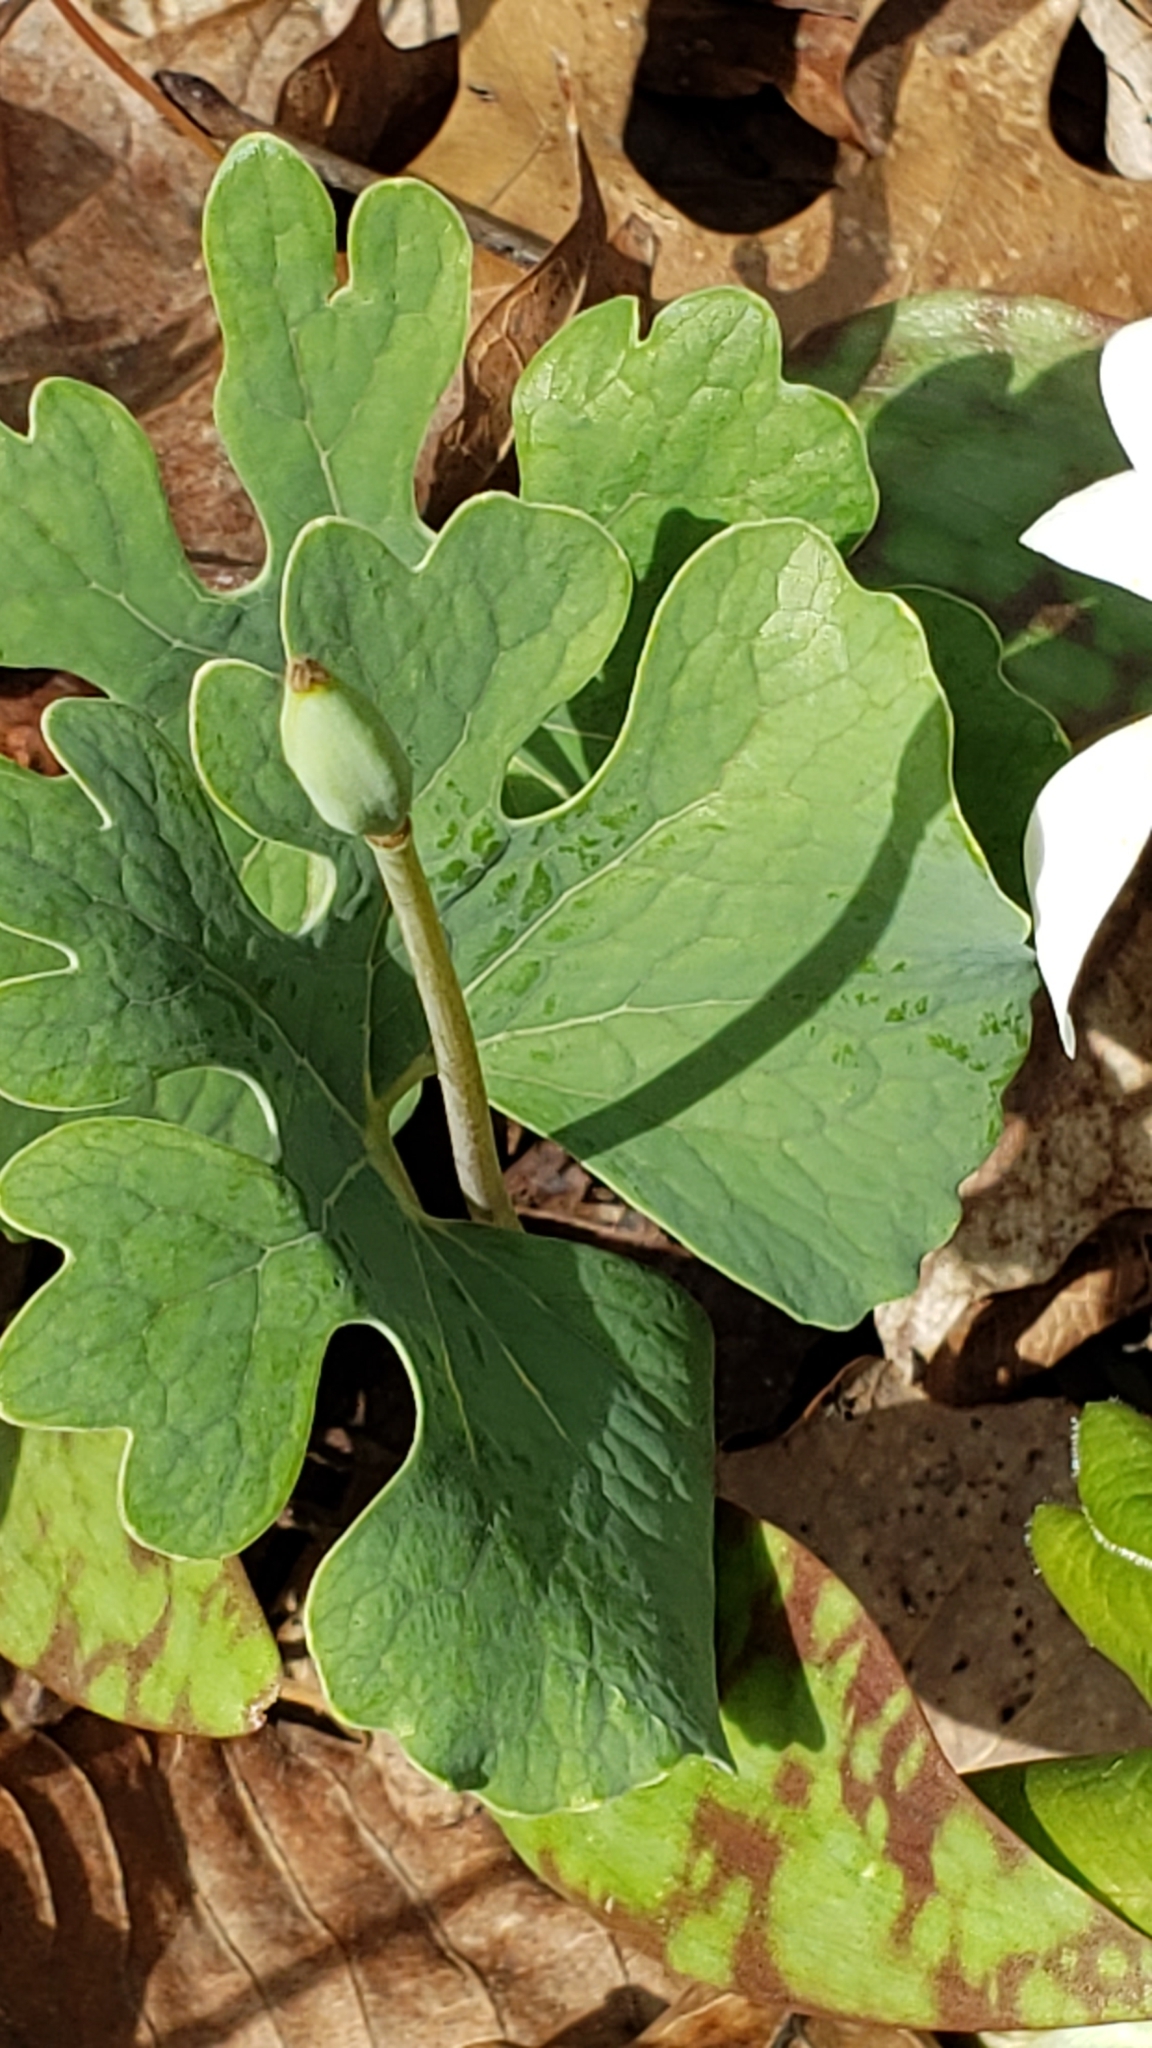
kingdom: Plantae
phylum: Tracheophyta
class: Magnoliopsida
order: Ranunculales
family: Papaveraceae
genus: Sanguinaria
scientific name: Sanguinaria canadensis
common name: Bloodroot
